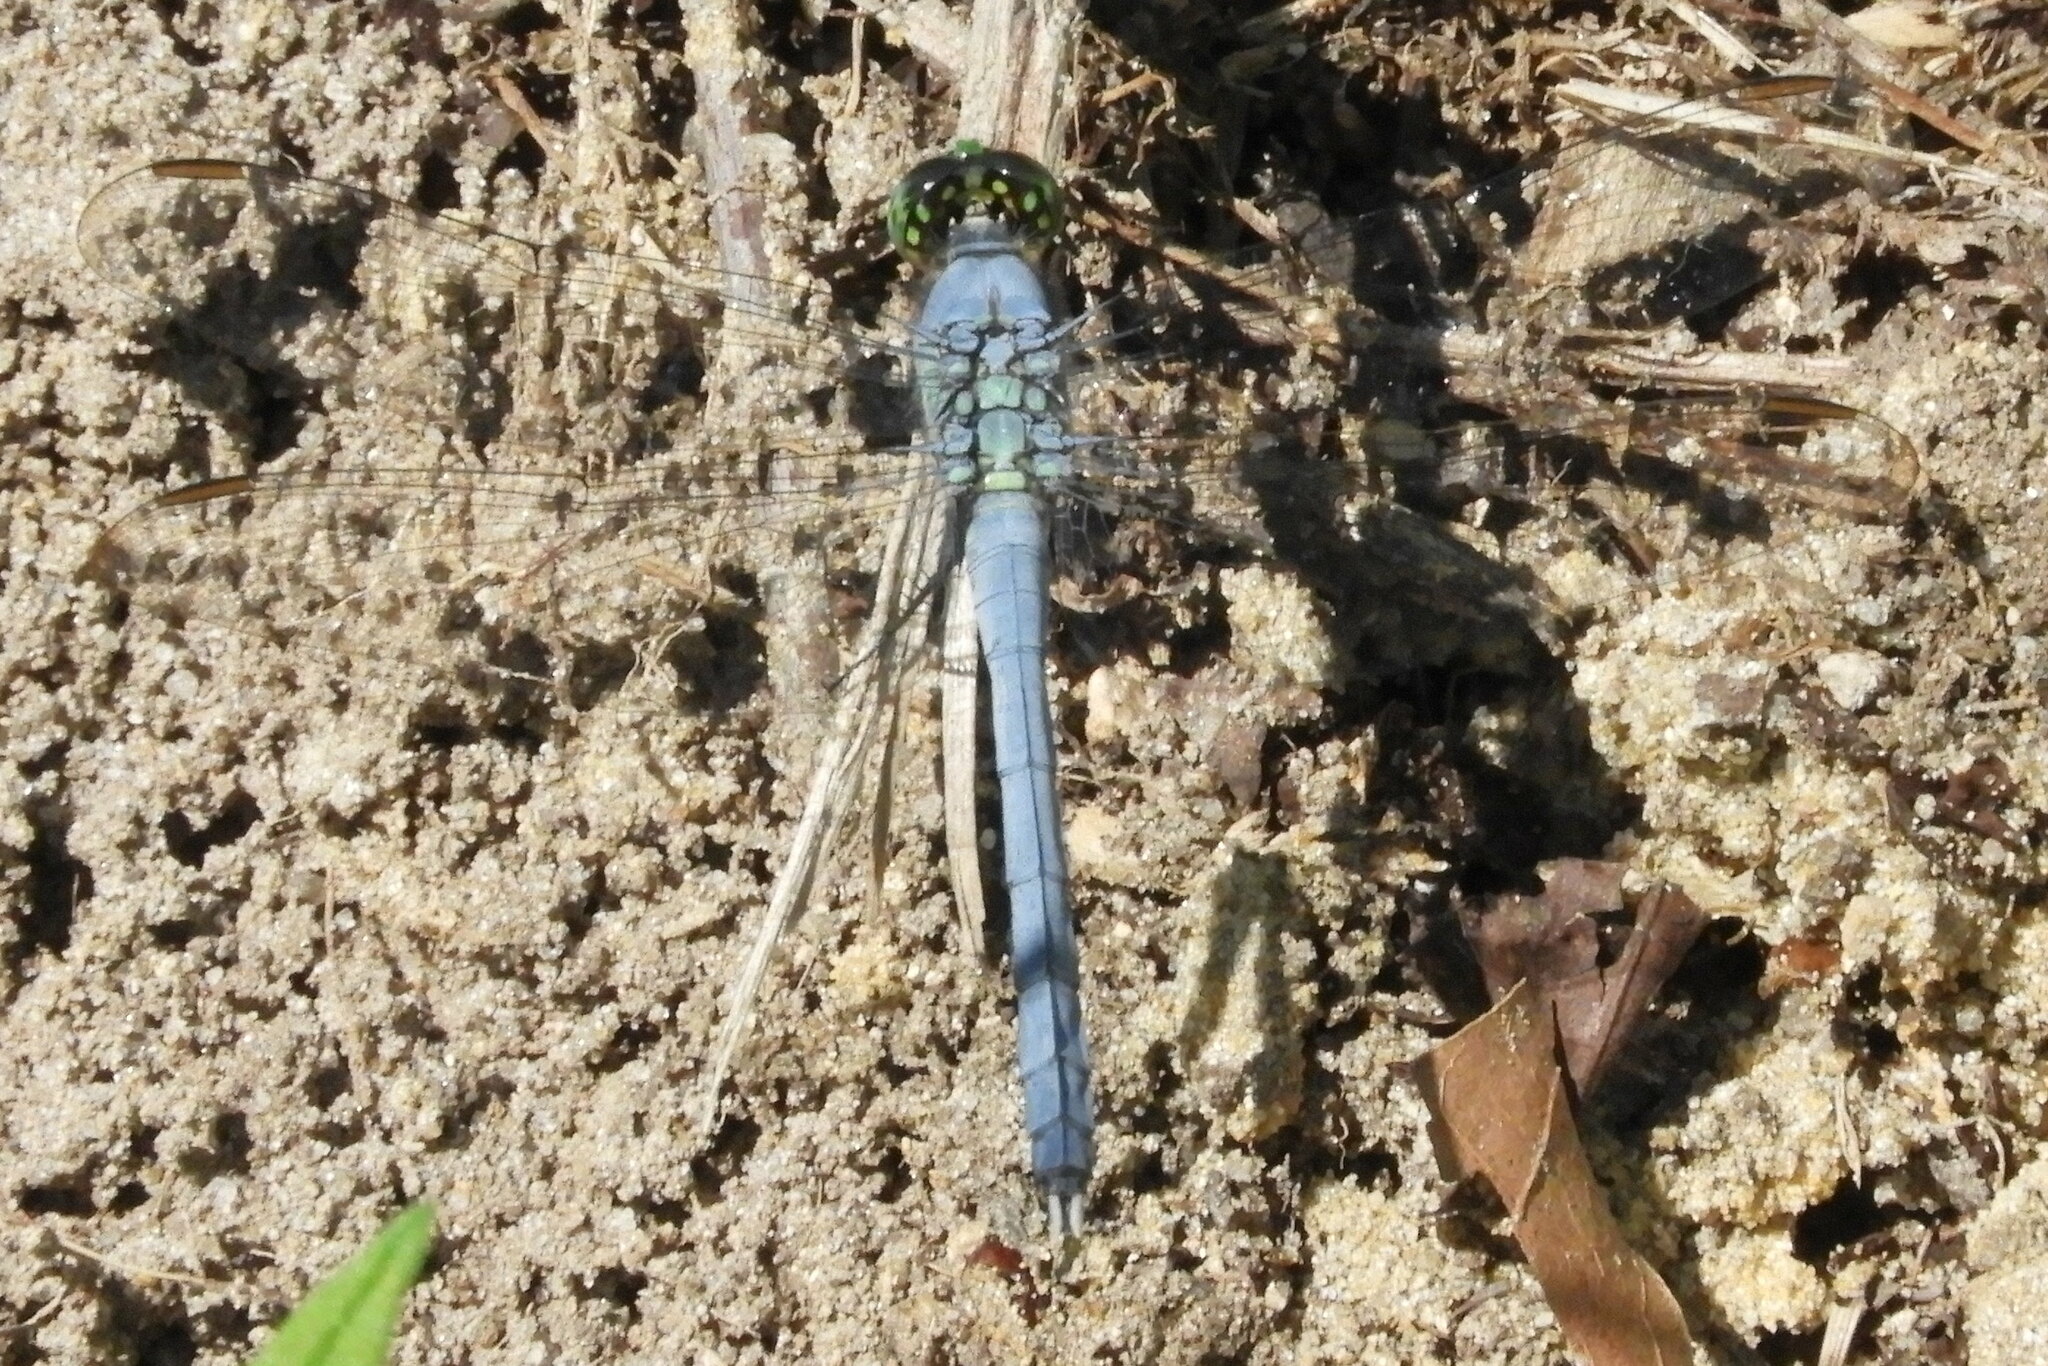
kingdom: Animalia
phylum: Arthropoda
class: Insecta
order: Odonata
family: Libellulidae
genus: Erythemis
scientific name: Erythemis simplicicollis
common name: Eastern pondhawk
